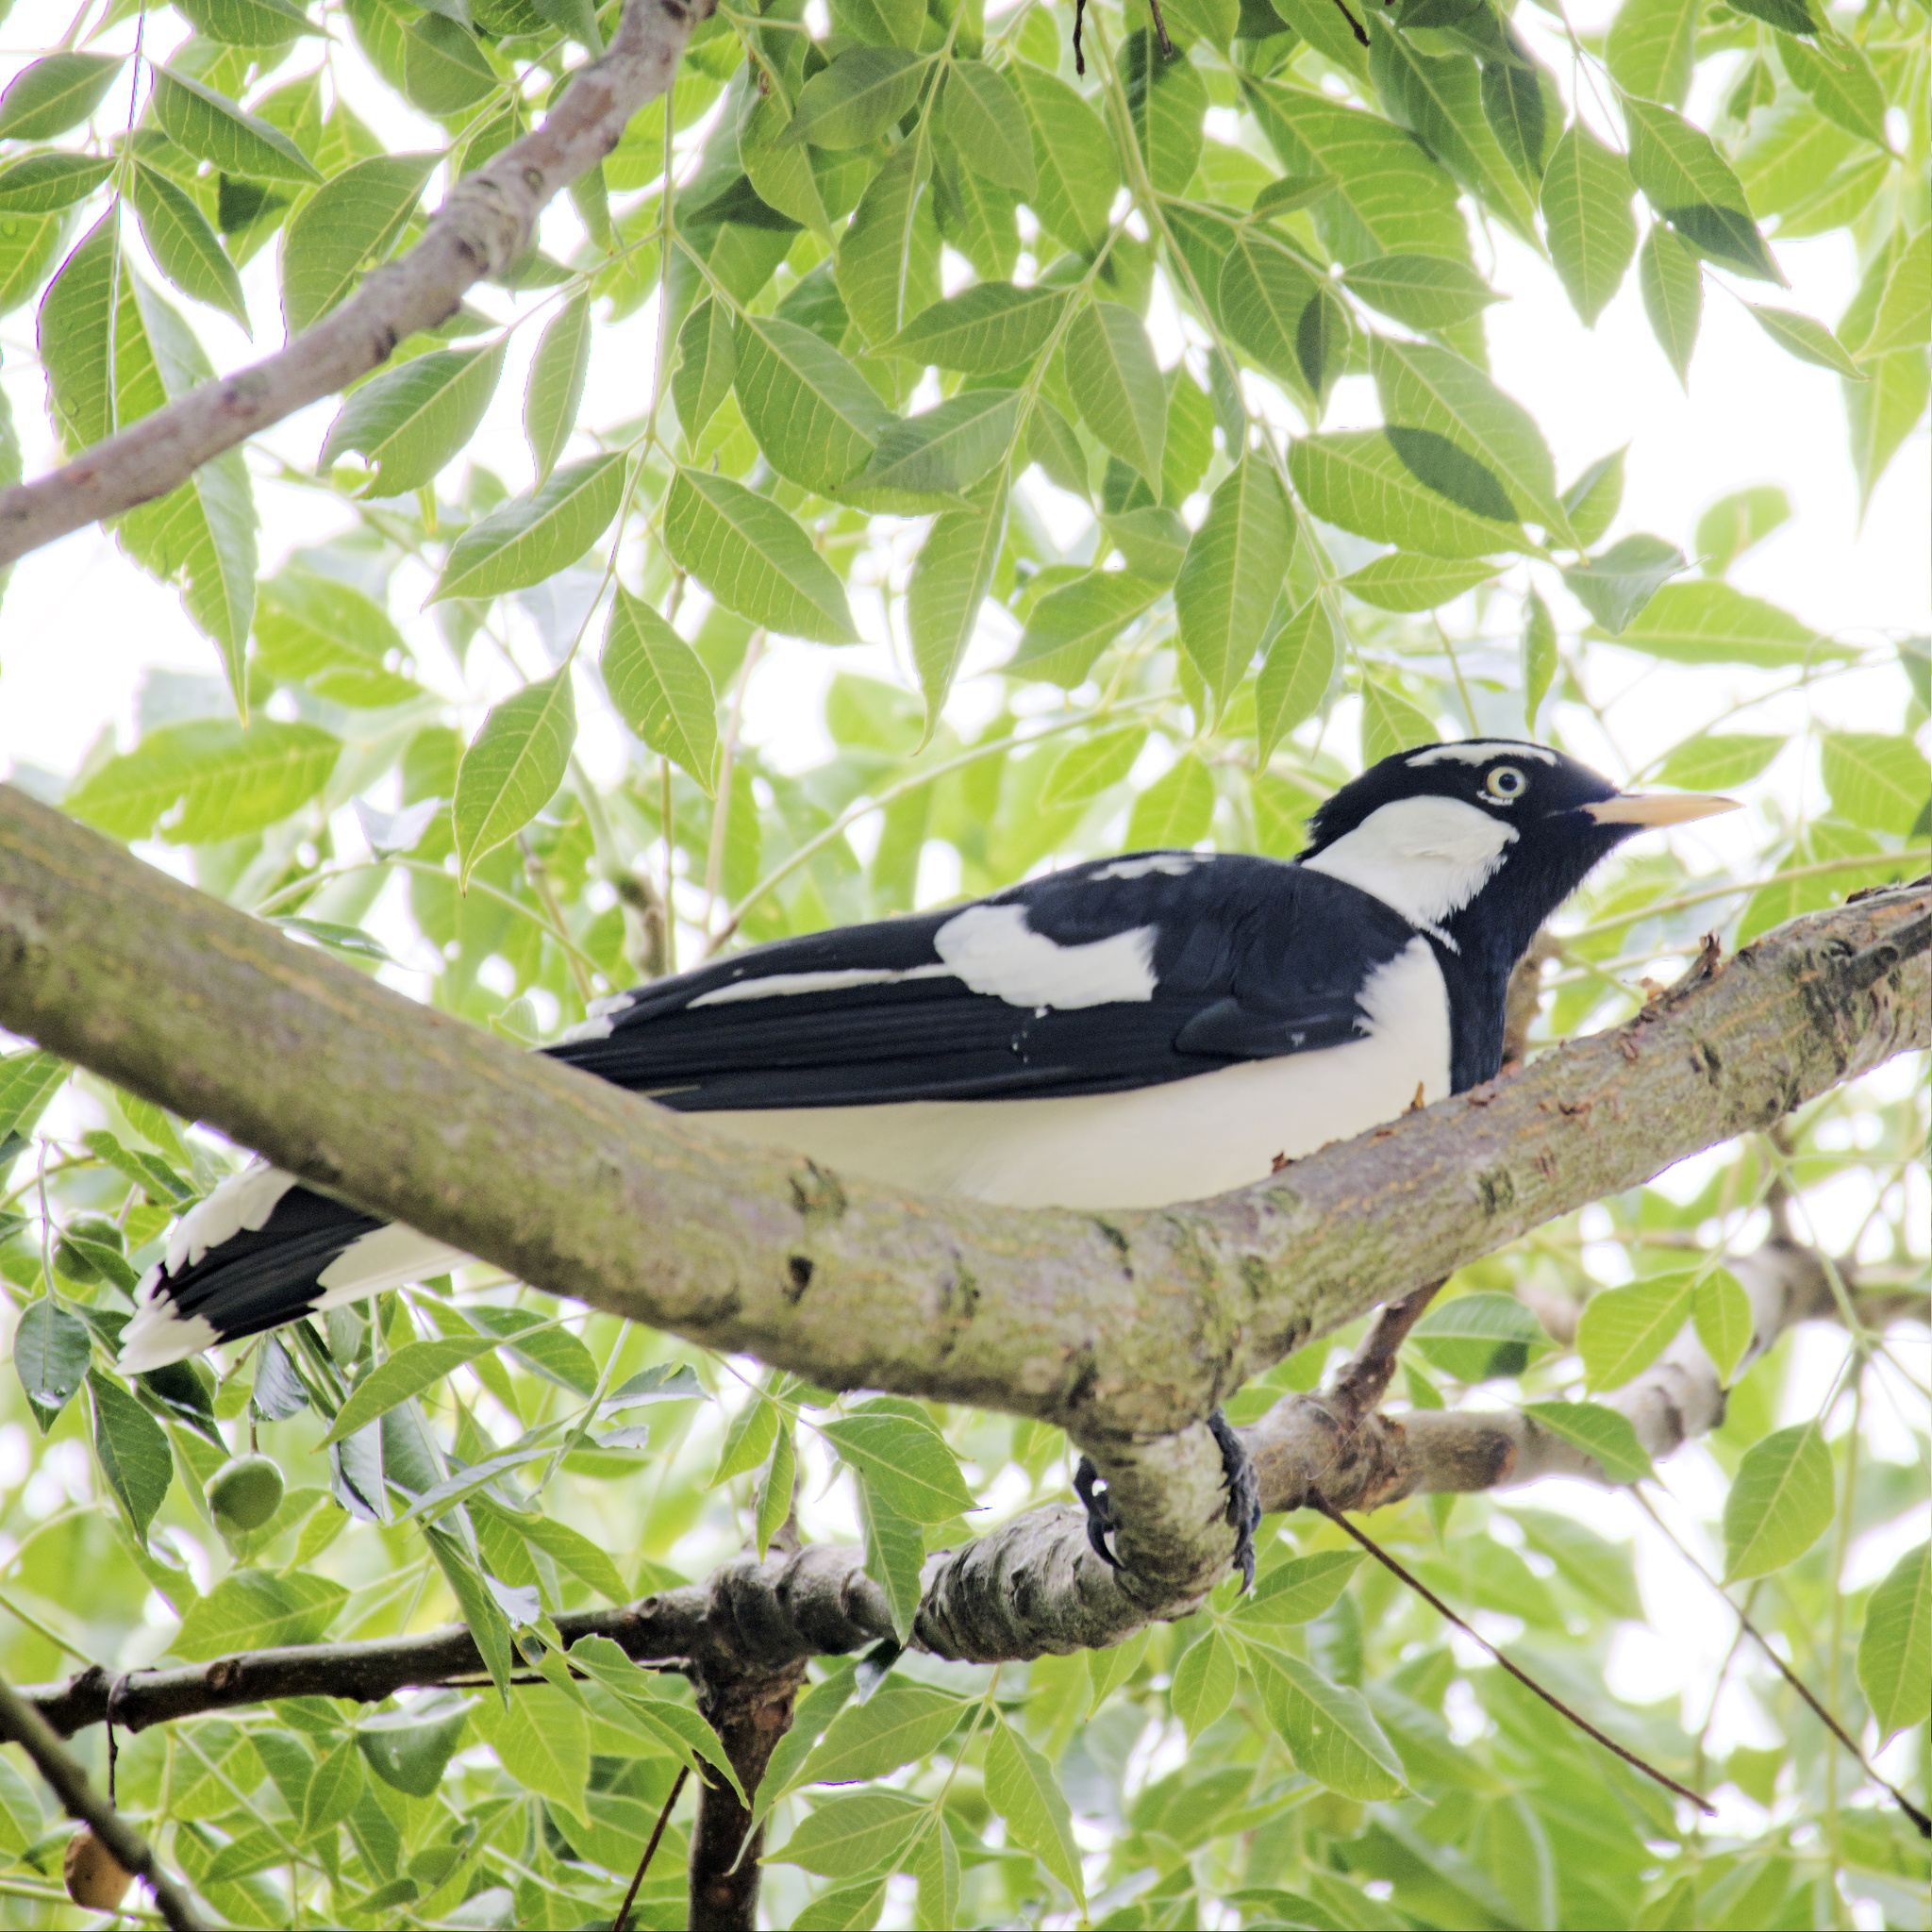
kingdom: Animalia
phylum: Chordata
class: Aves
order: Passeriformes
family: Monarchidae
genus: Grallina
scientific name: Grallina cyanoleuca
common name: Magpie-lark
